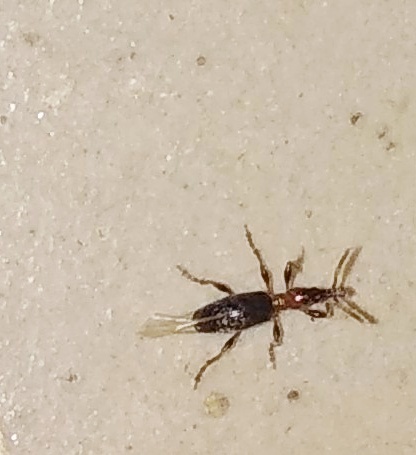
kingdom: Animalia
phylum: Arthropoda
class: Insecta
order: Coleoptera
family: Brentidae
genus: Cylas
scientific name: Cylas formicarius
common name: Sweetpotato weevil
